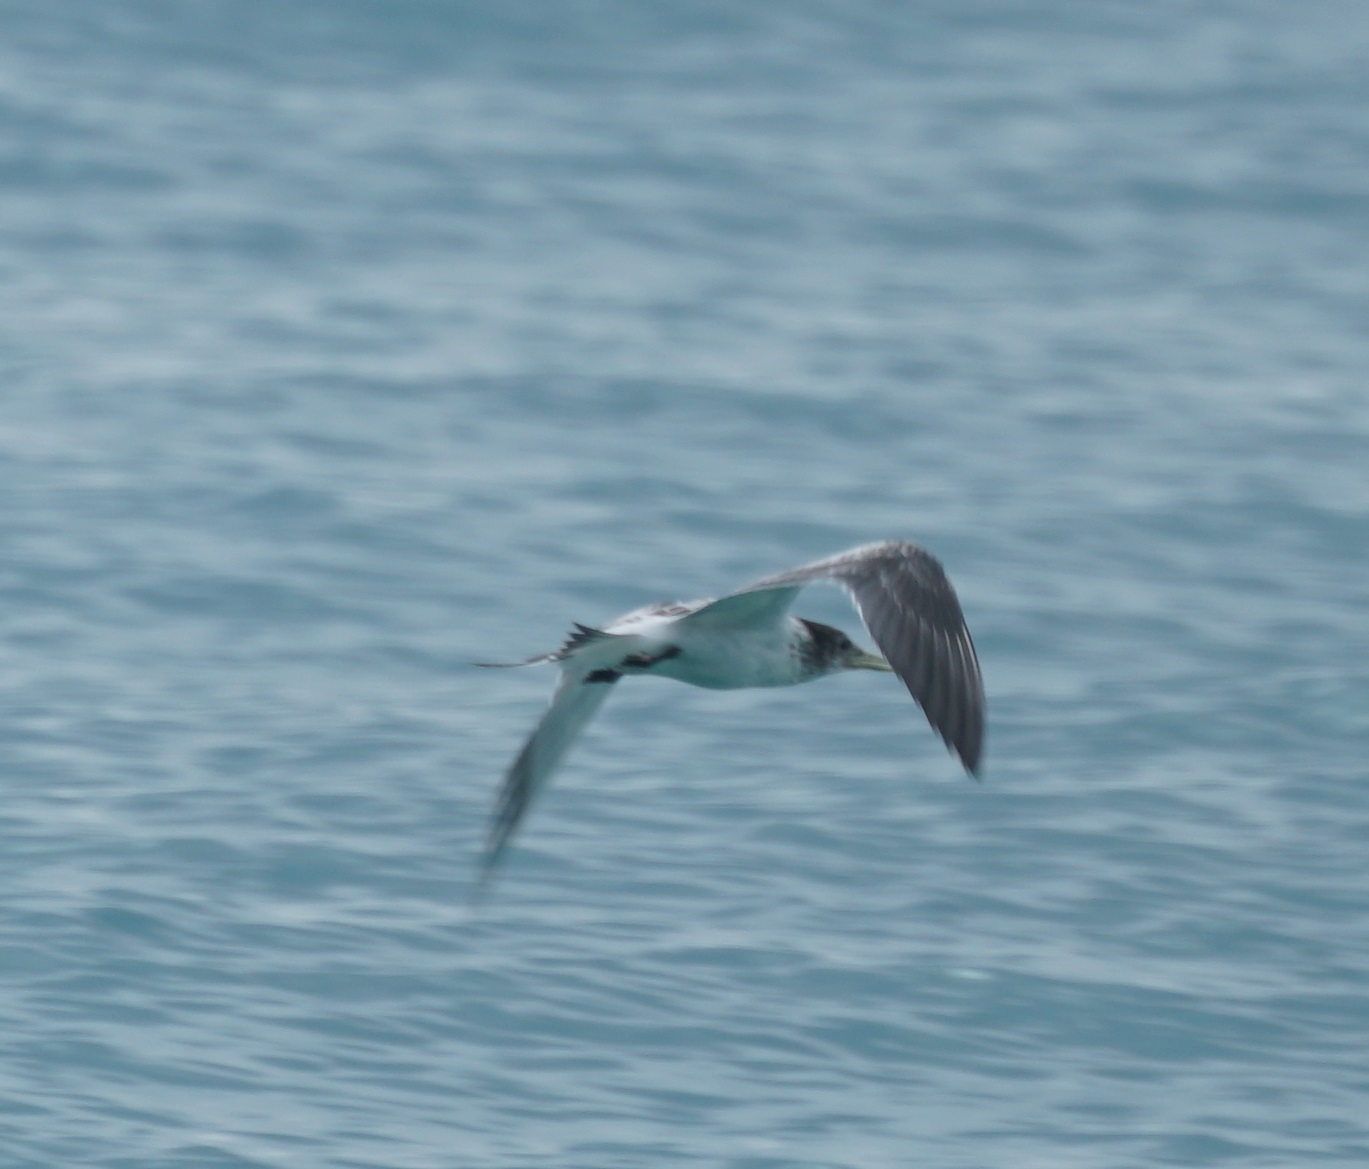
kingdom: Animalia
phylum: Chordata
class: Aves
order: Charadriiformes
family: Laridae
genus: Thalasseus
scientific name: Thalasseus bergii
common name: Greater crested tern
